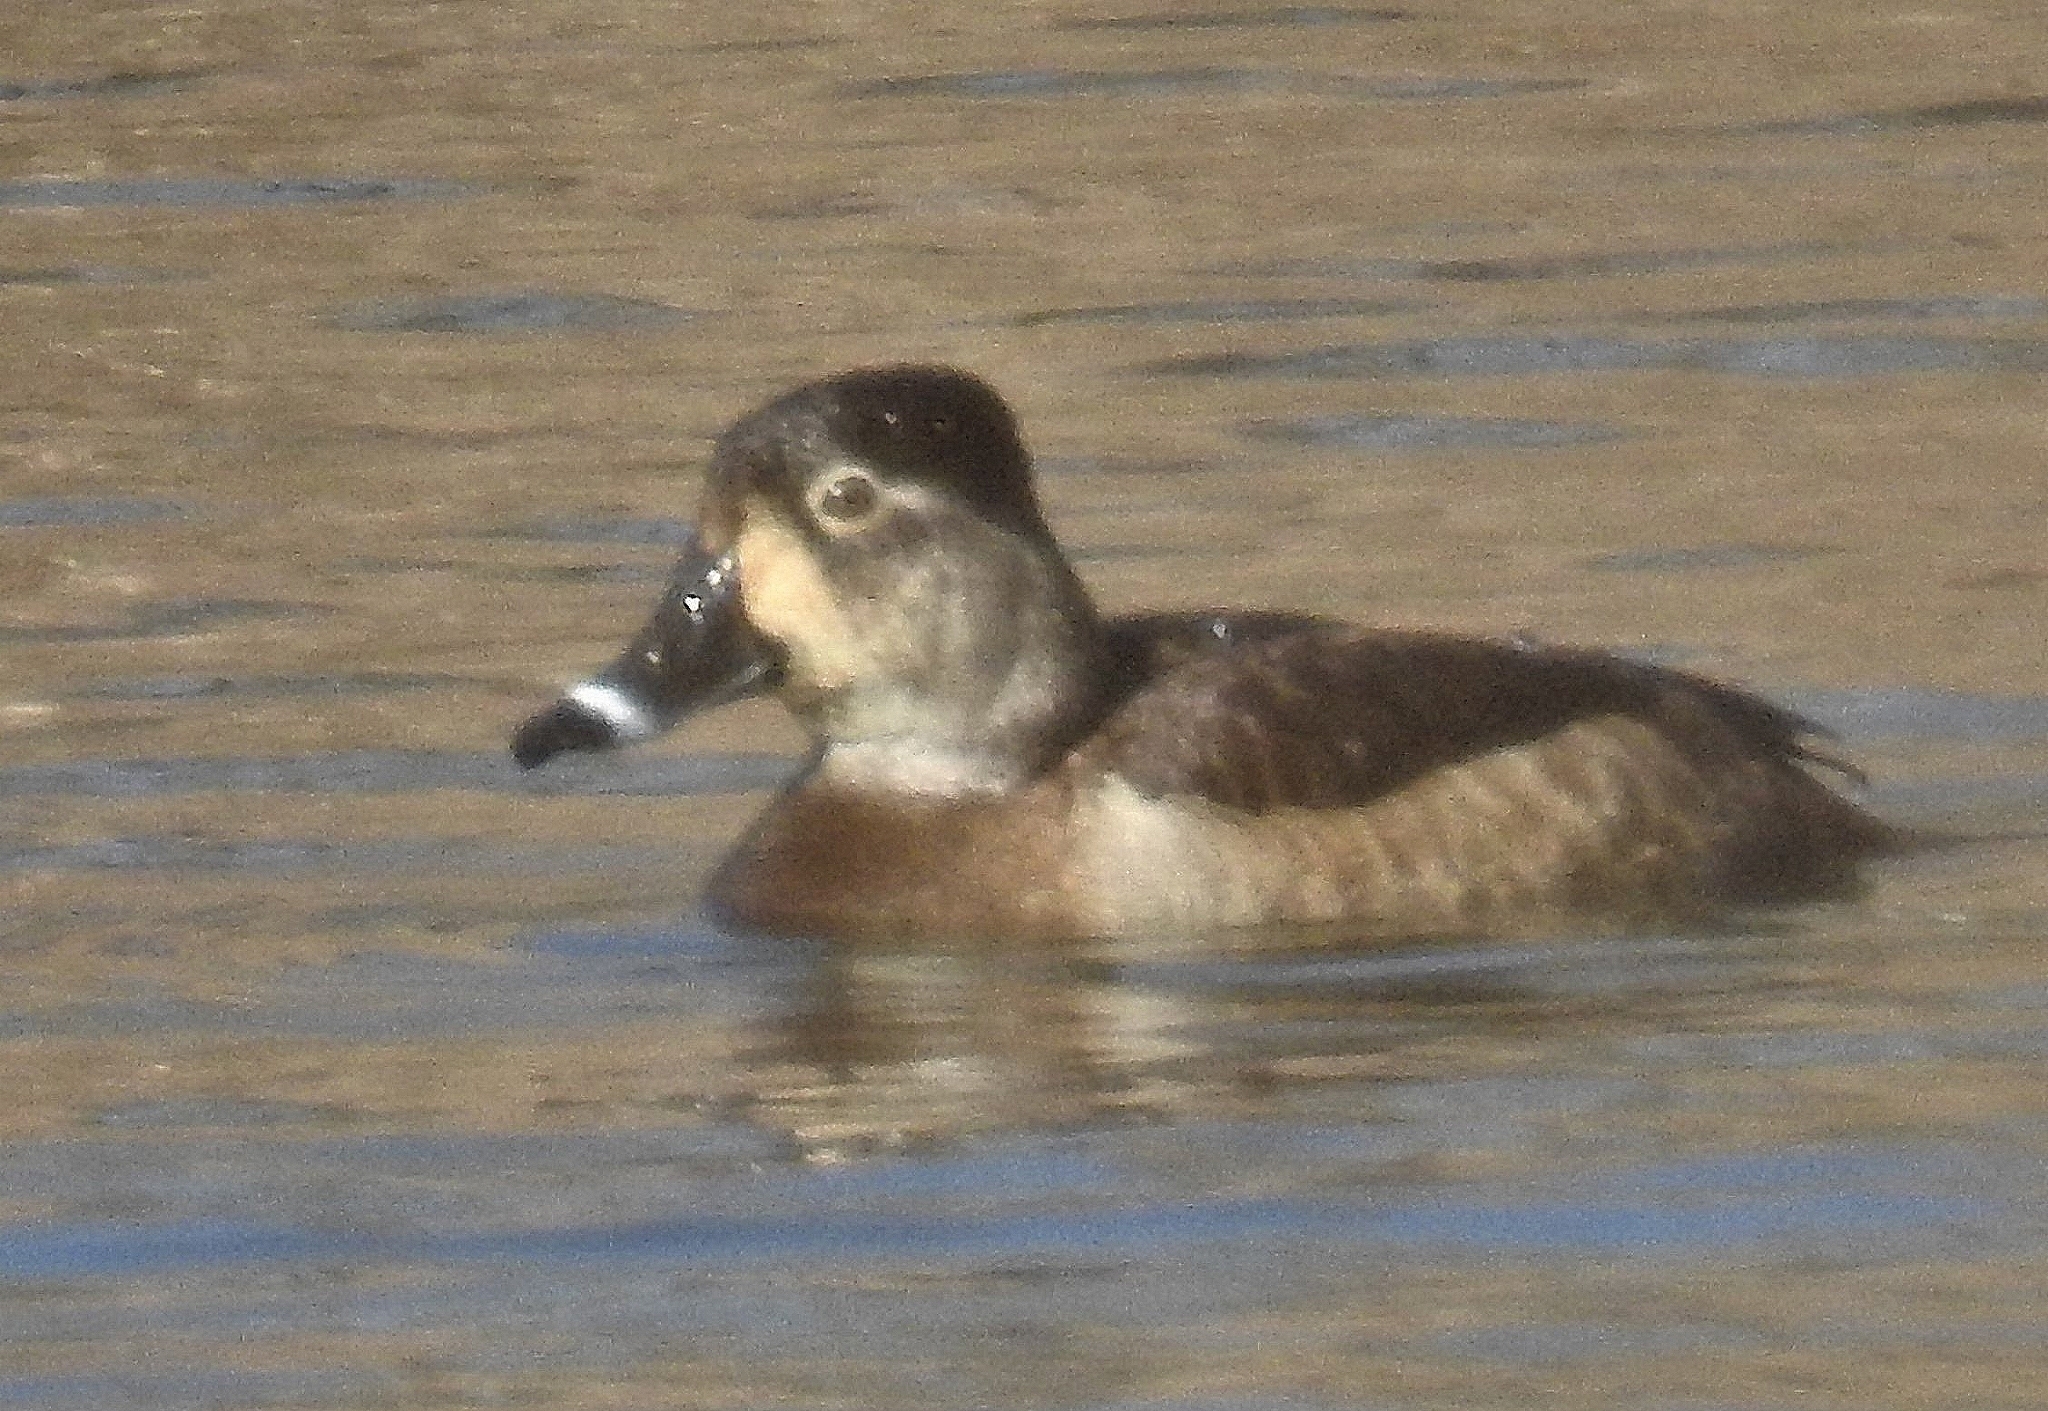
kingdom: Animalia
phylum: Chordata
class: Aves
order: Anseriformes
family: Anatidae
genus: Aythya
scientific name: Aythya collaris
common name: Ring-necked duck
